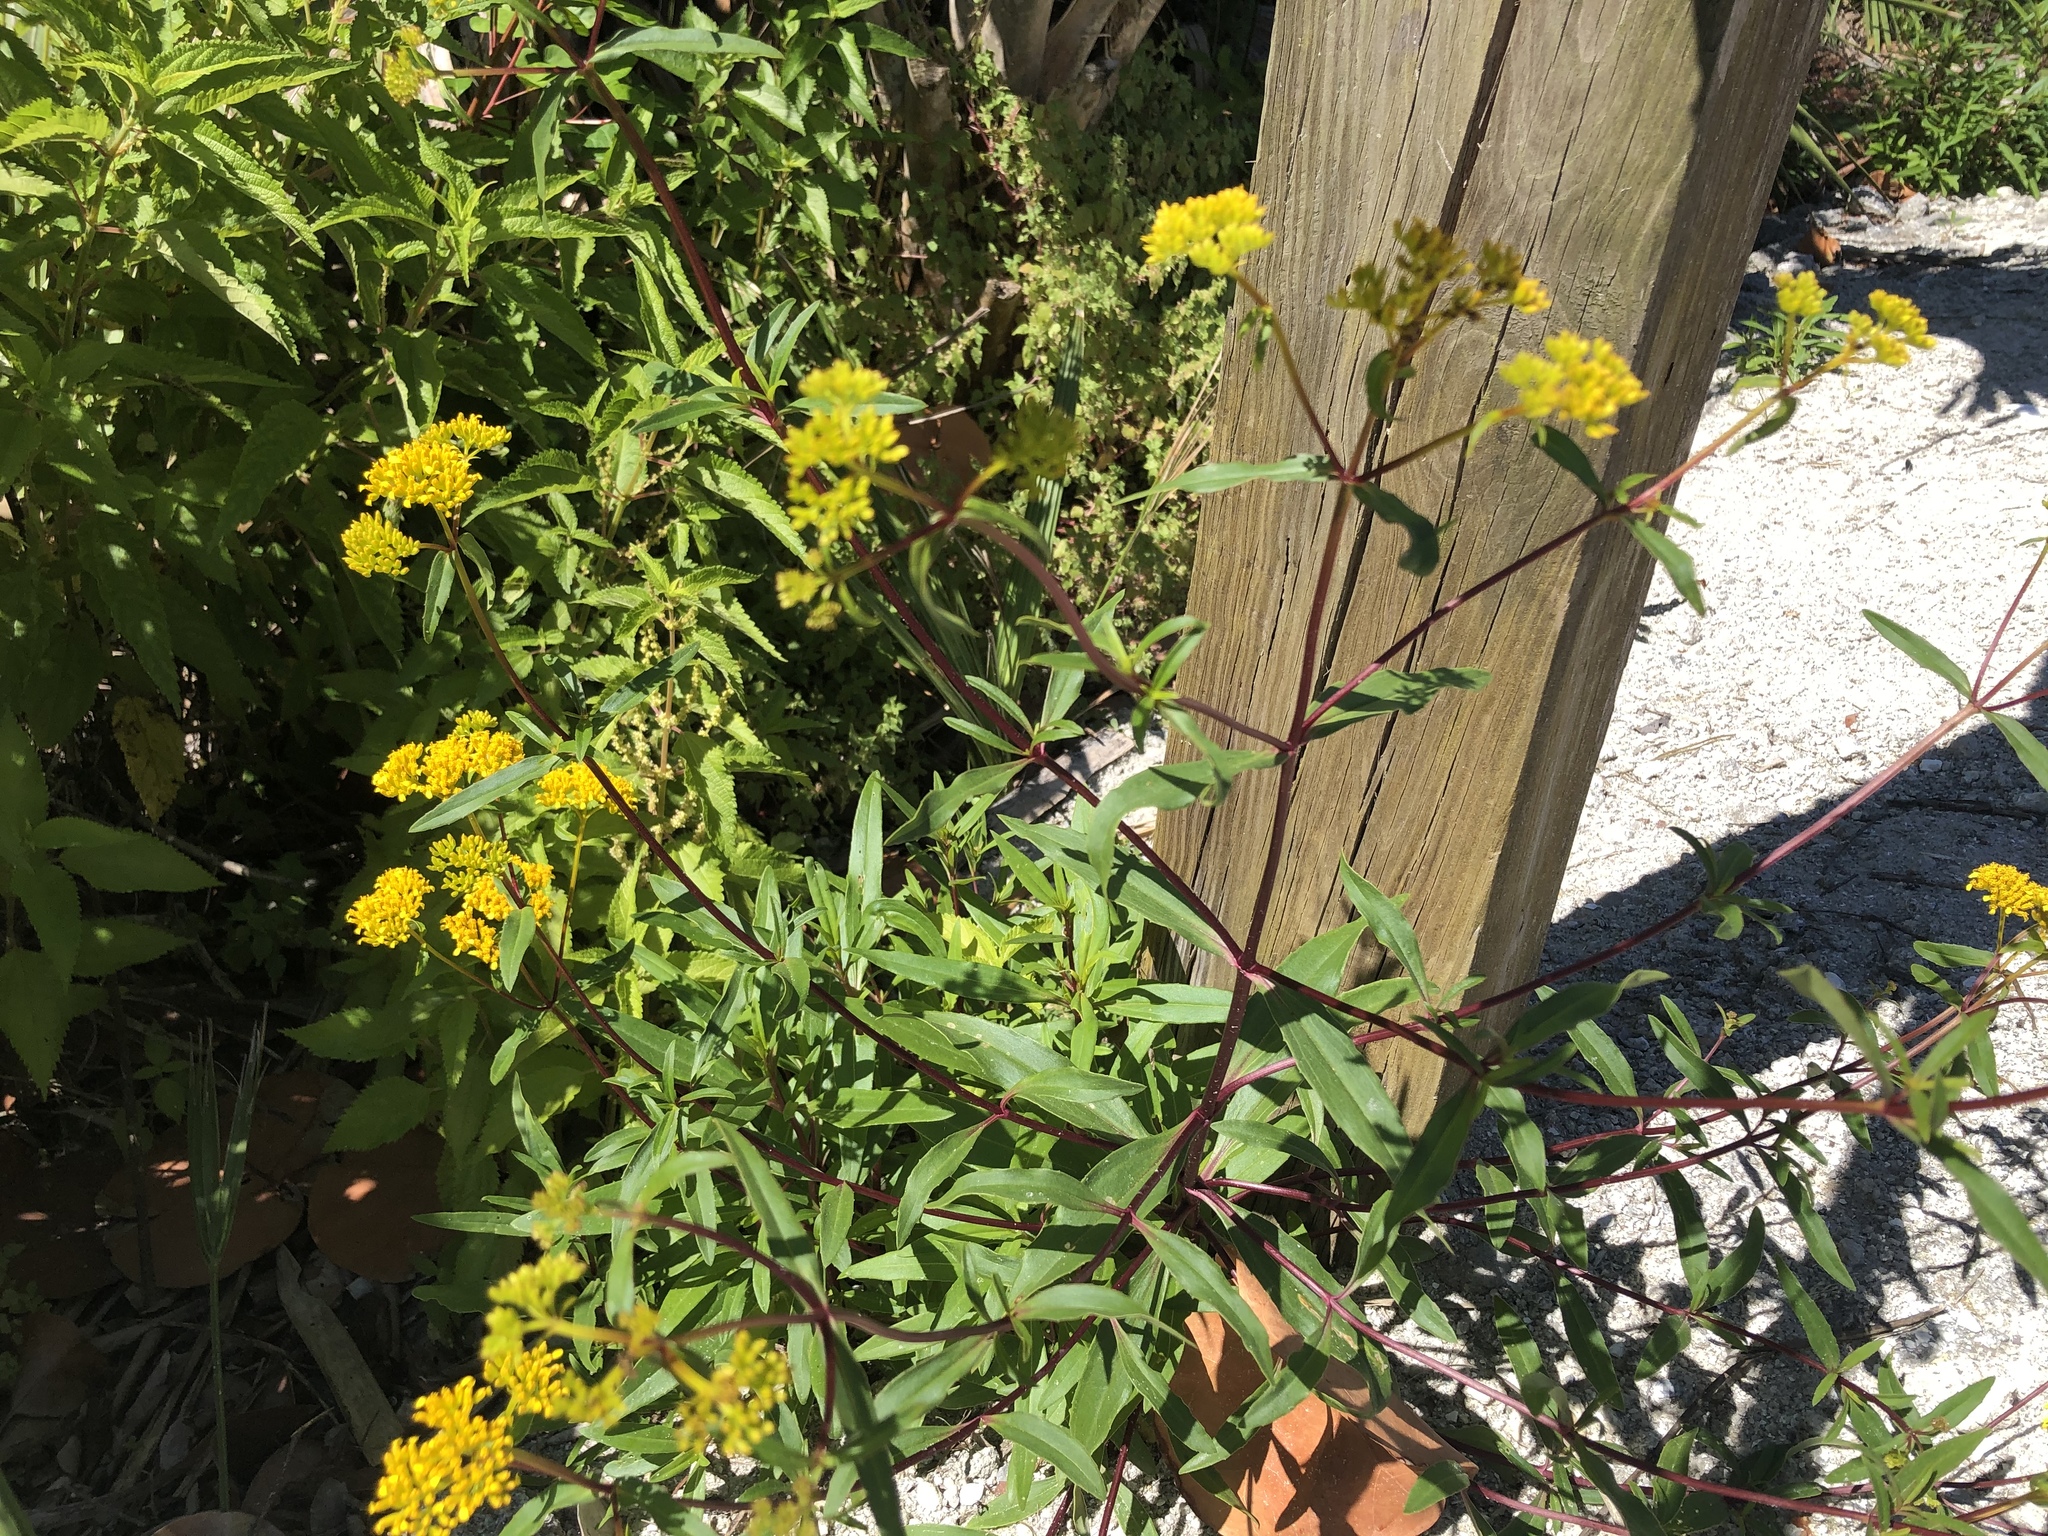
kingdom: Plantae
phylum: Tracheophyta
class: Magnoliopsida
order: Asterales
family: Asteraceae
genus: Flaveria
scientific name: Flaveria linearis
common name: Yellowtop
